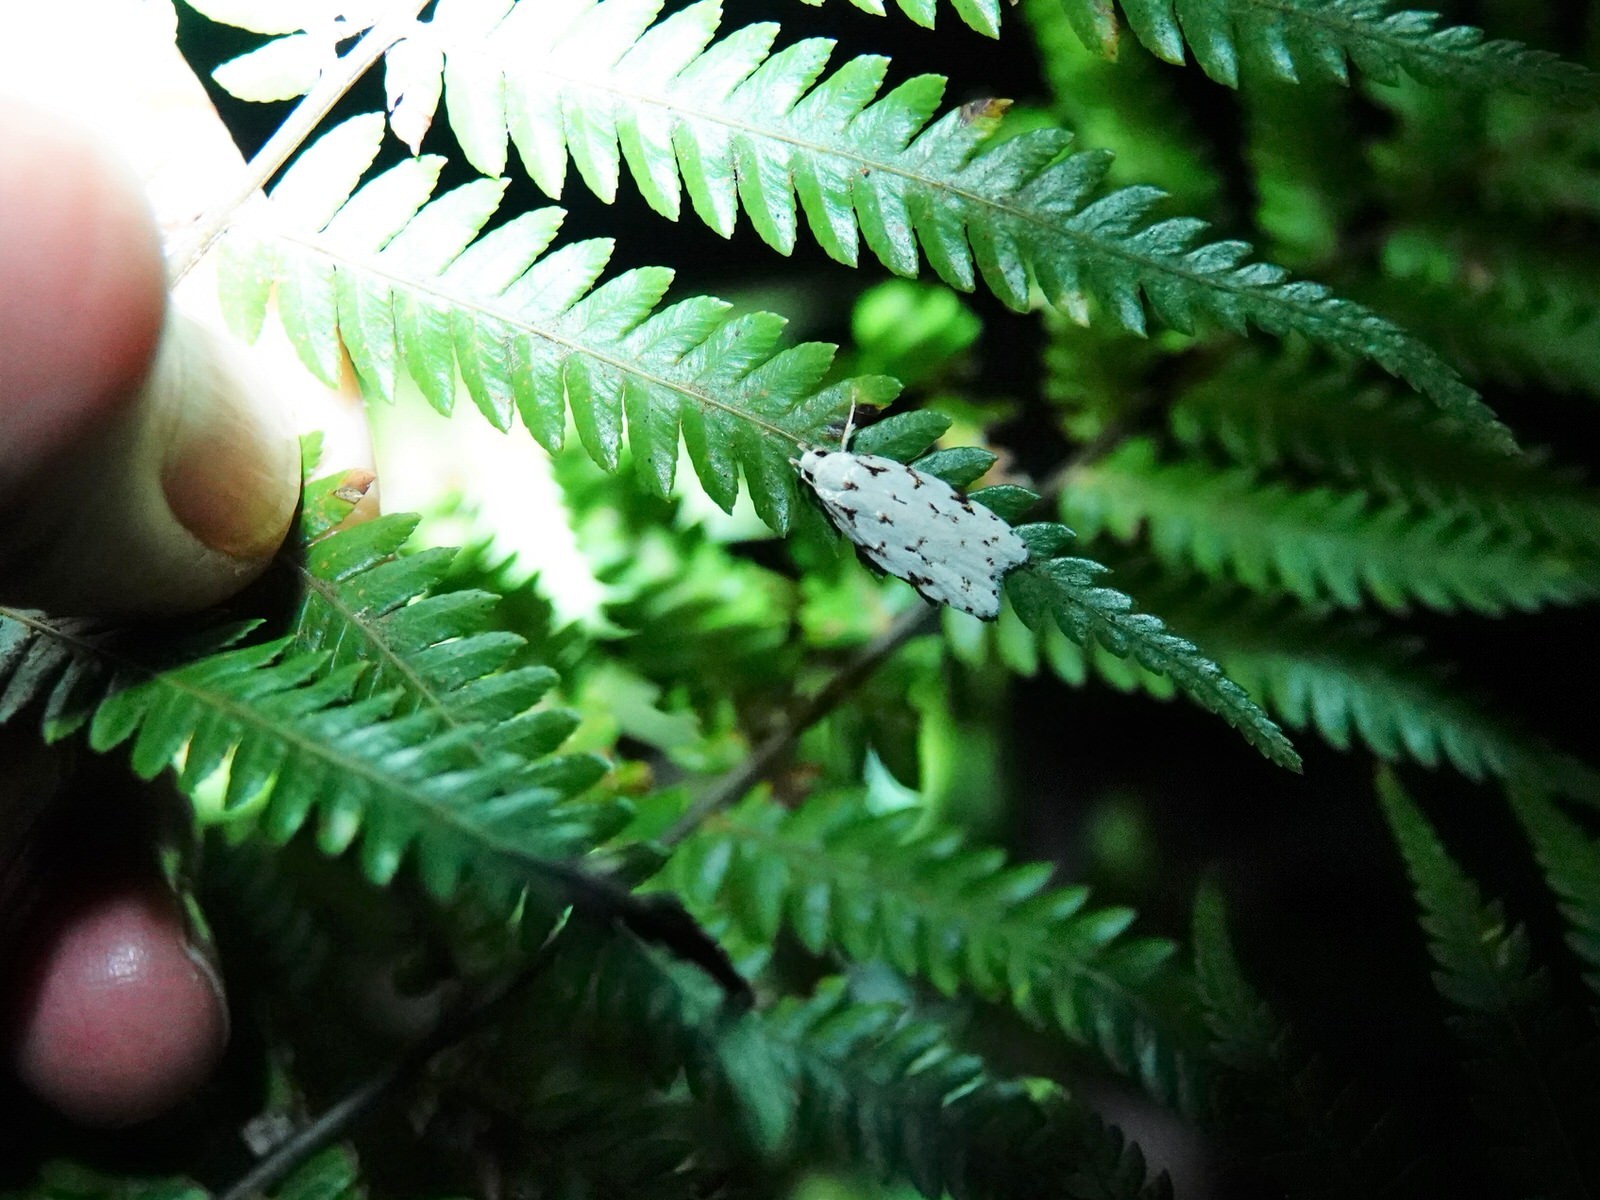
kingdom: Animalia
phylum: Arthropoda
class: Insecta
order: Lepidoptera
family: Oecophoridae
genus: Izatha
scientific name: Izatha hudsoni
